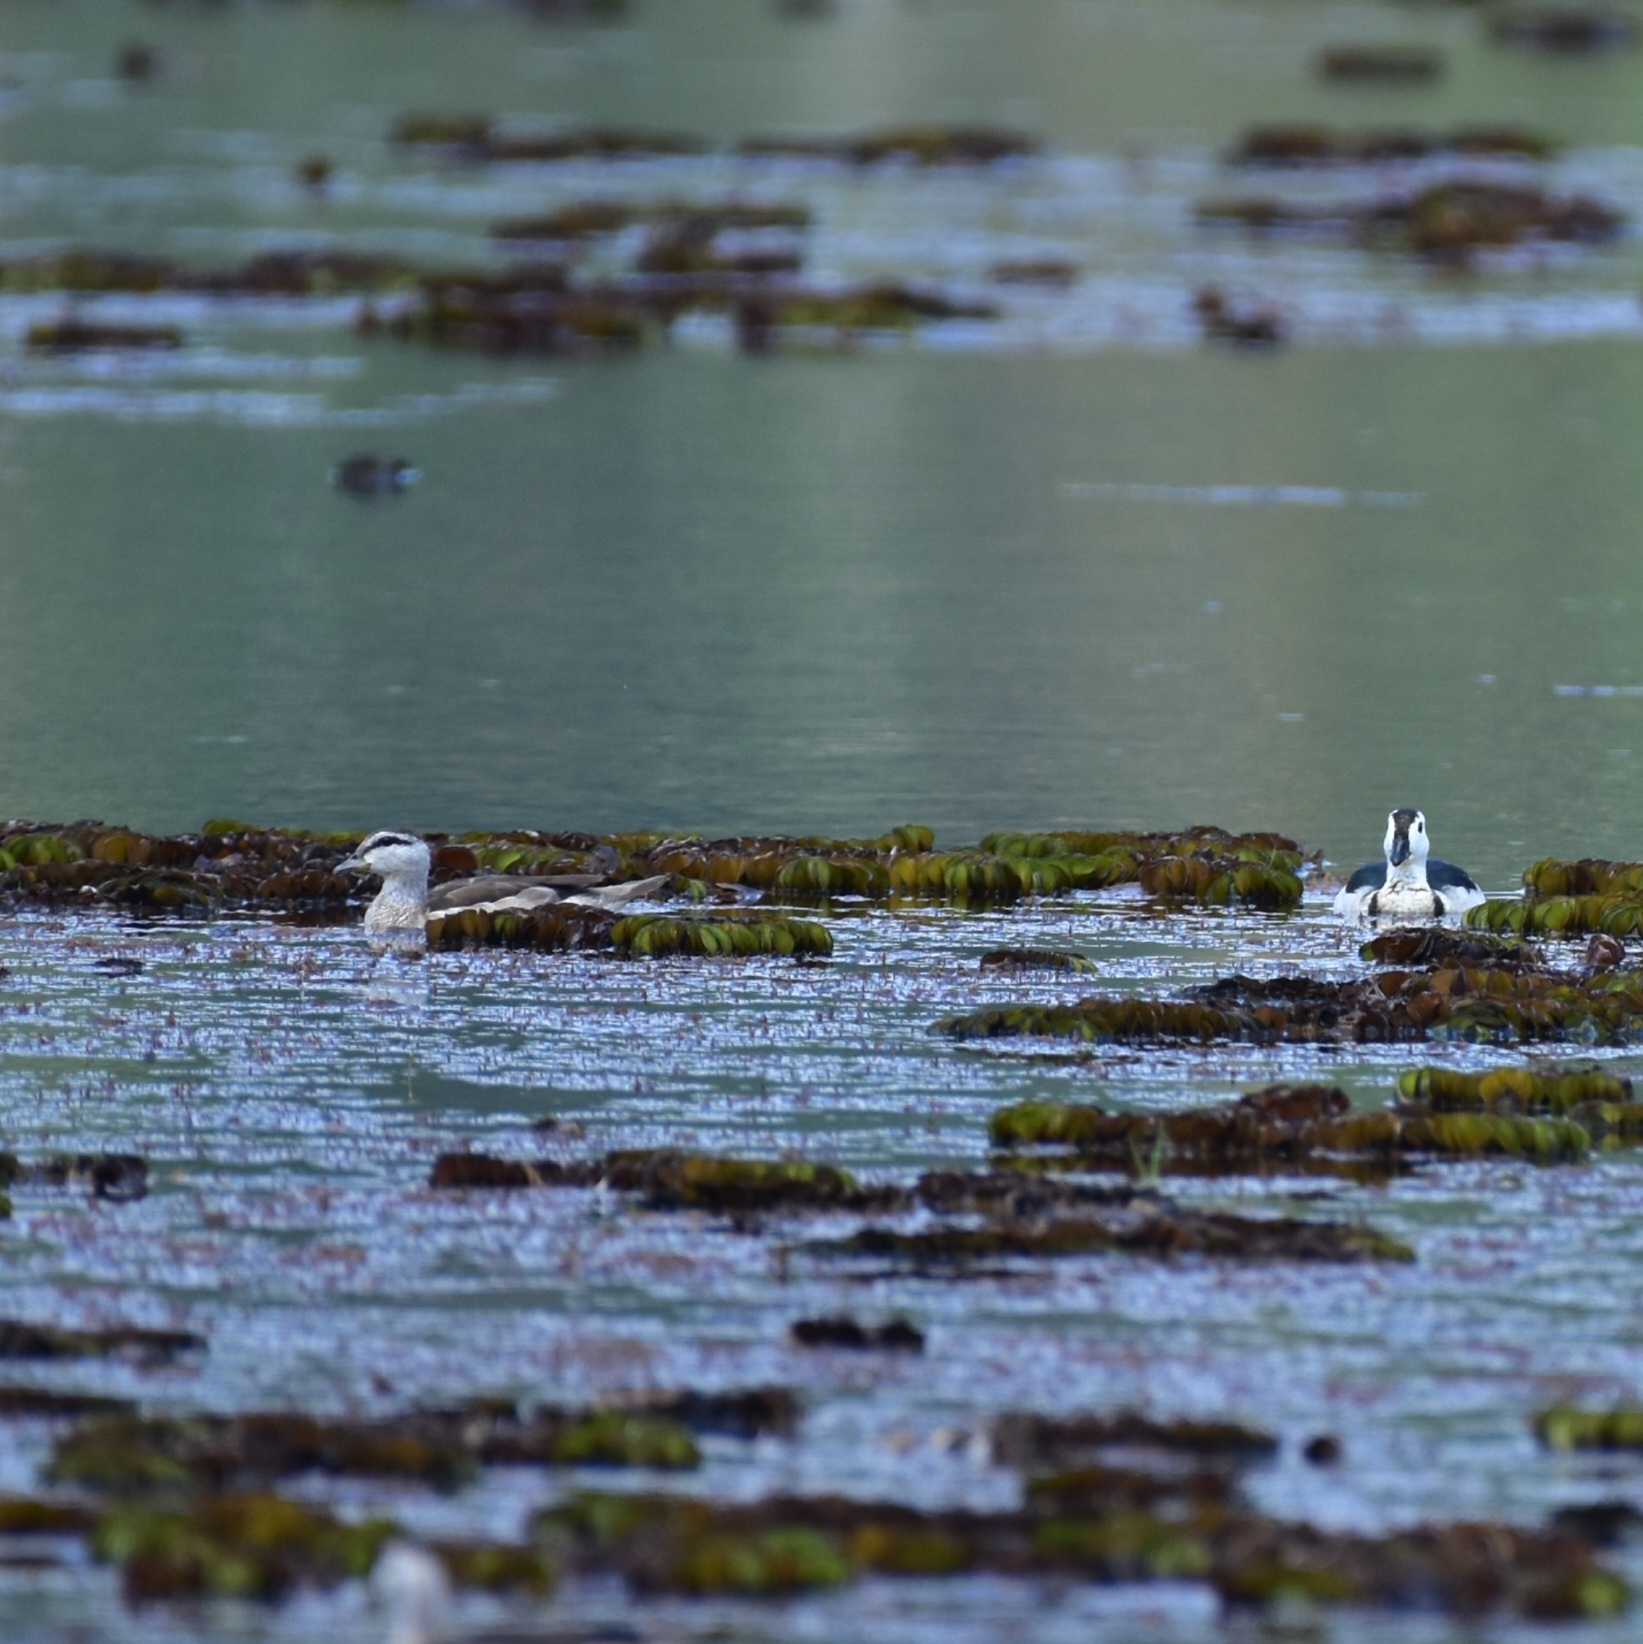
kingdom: Animalia
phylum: Chordata
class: Aves
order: Anseriformes
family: Anatidae
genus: Nettapus
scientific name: Nettapus coromandelianus
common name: Cotton pygmy-goose
